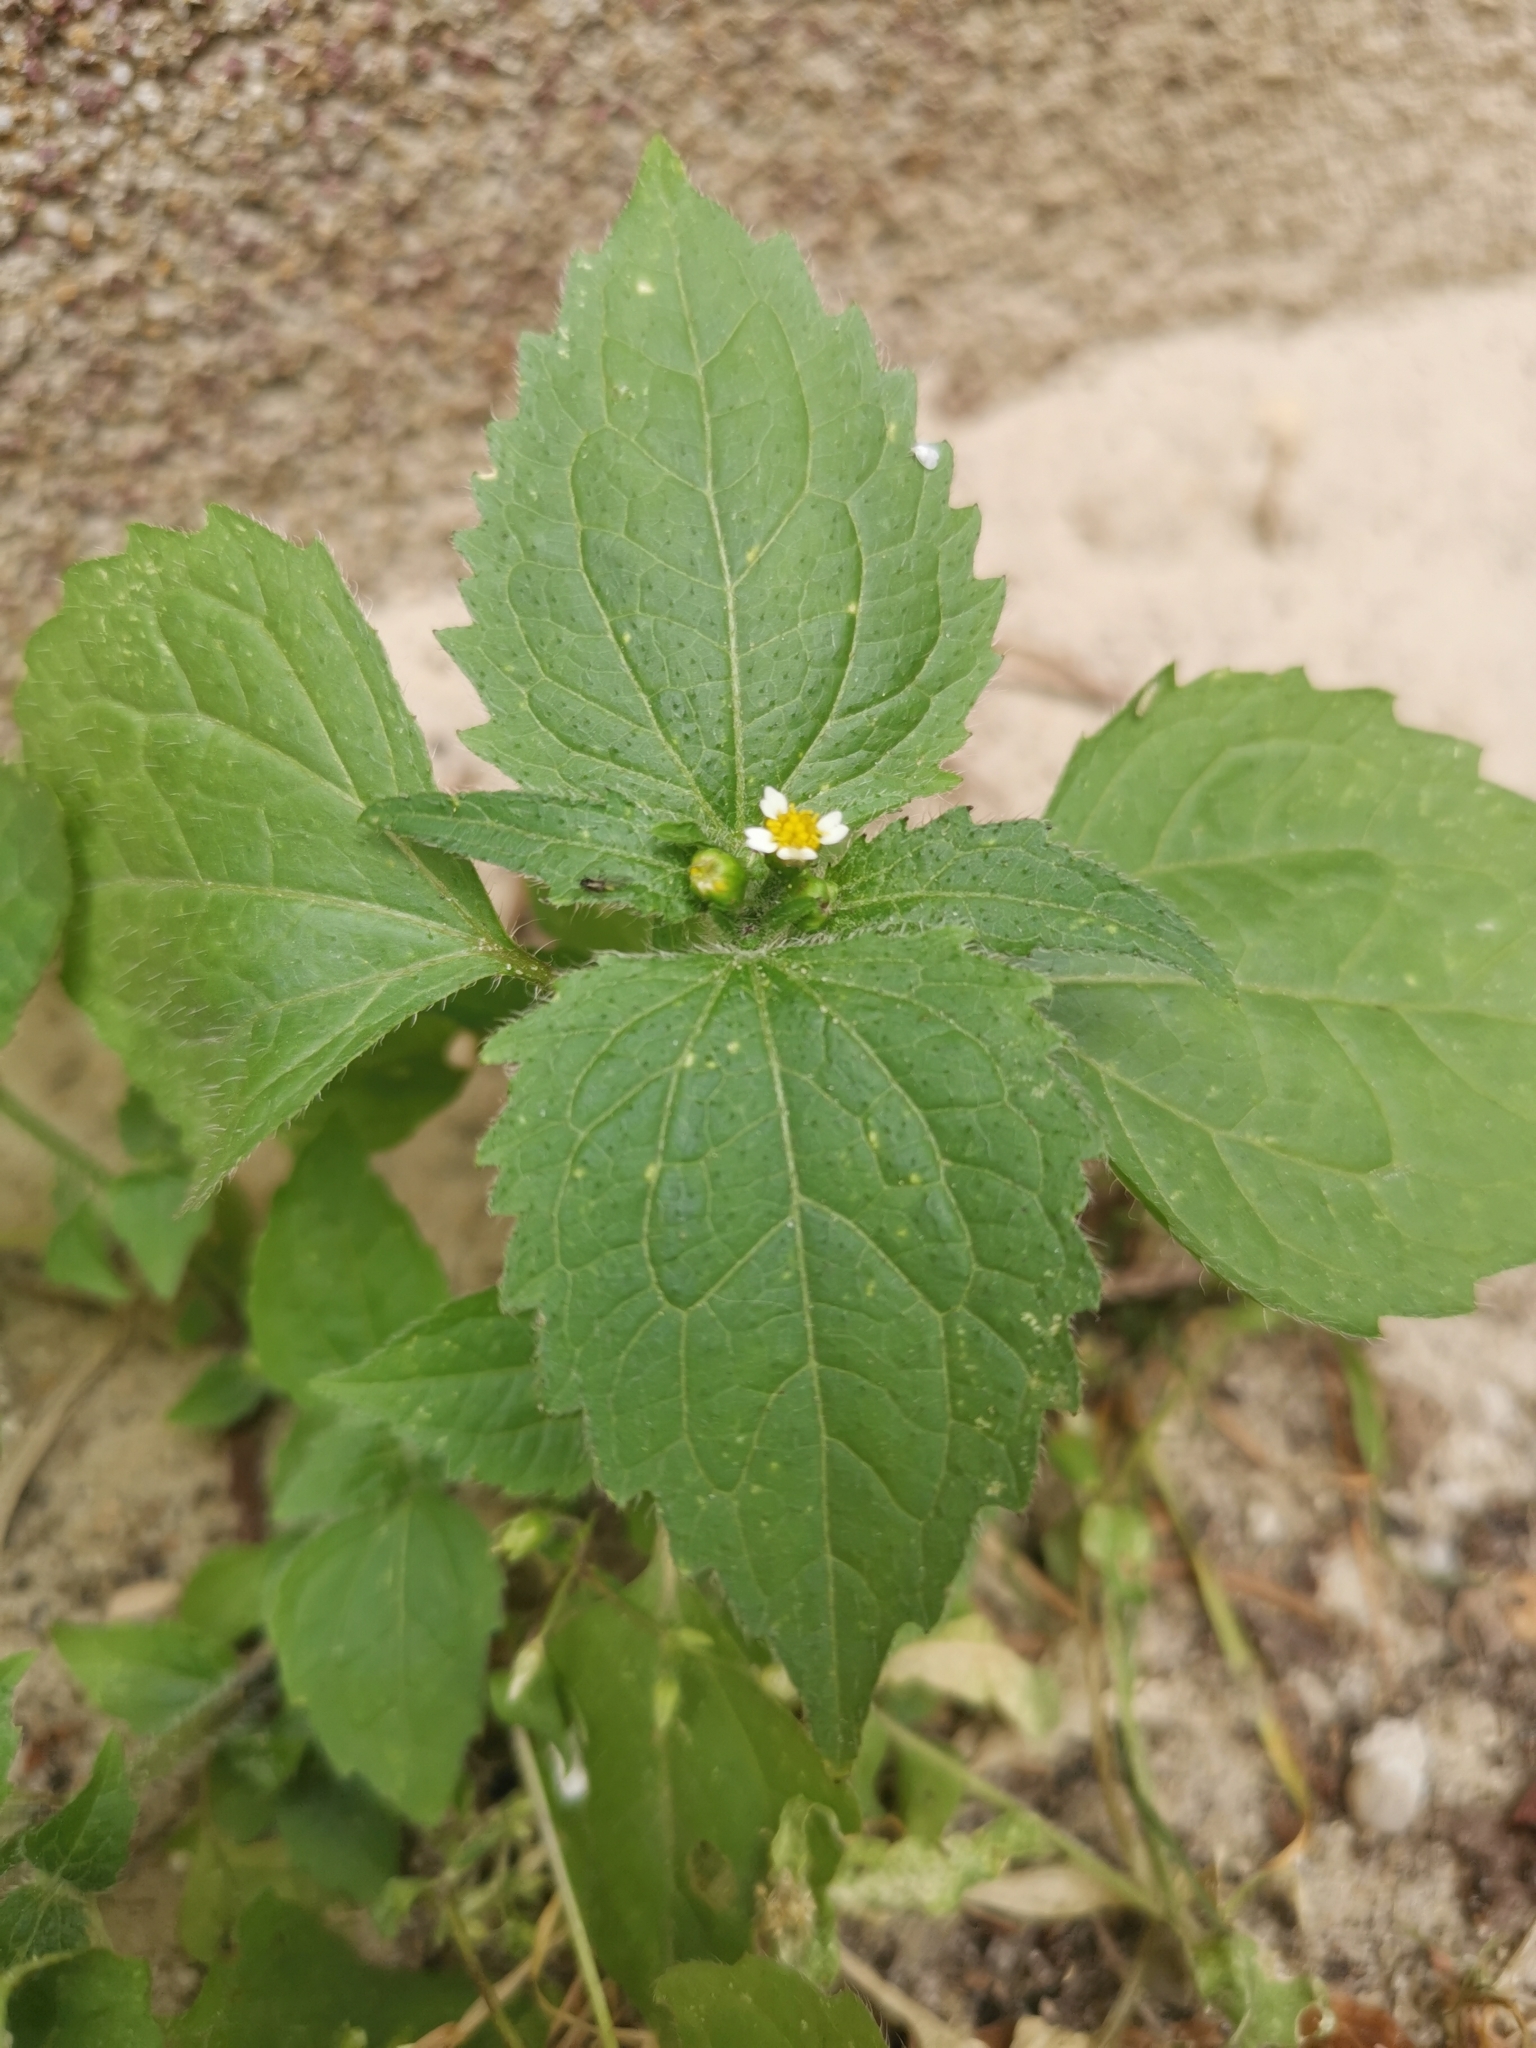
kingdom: Plantae
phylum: Tracheophyta
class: Magnoliopsida
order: Asterales
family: Asteraceae
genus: Galinsoga
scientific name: Galinsoga quadriradiata
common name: Shaggy soldier
